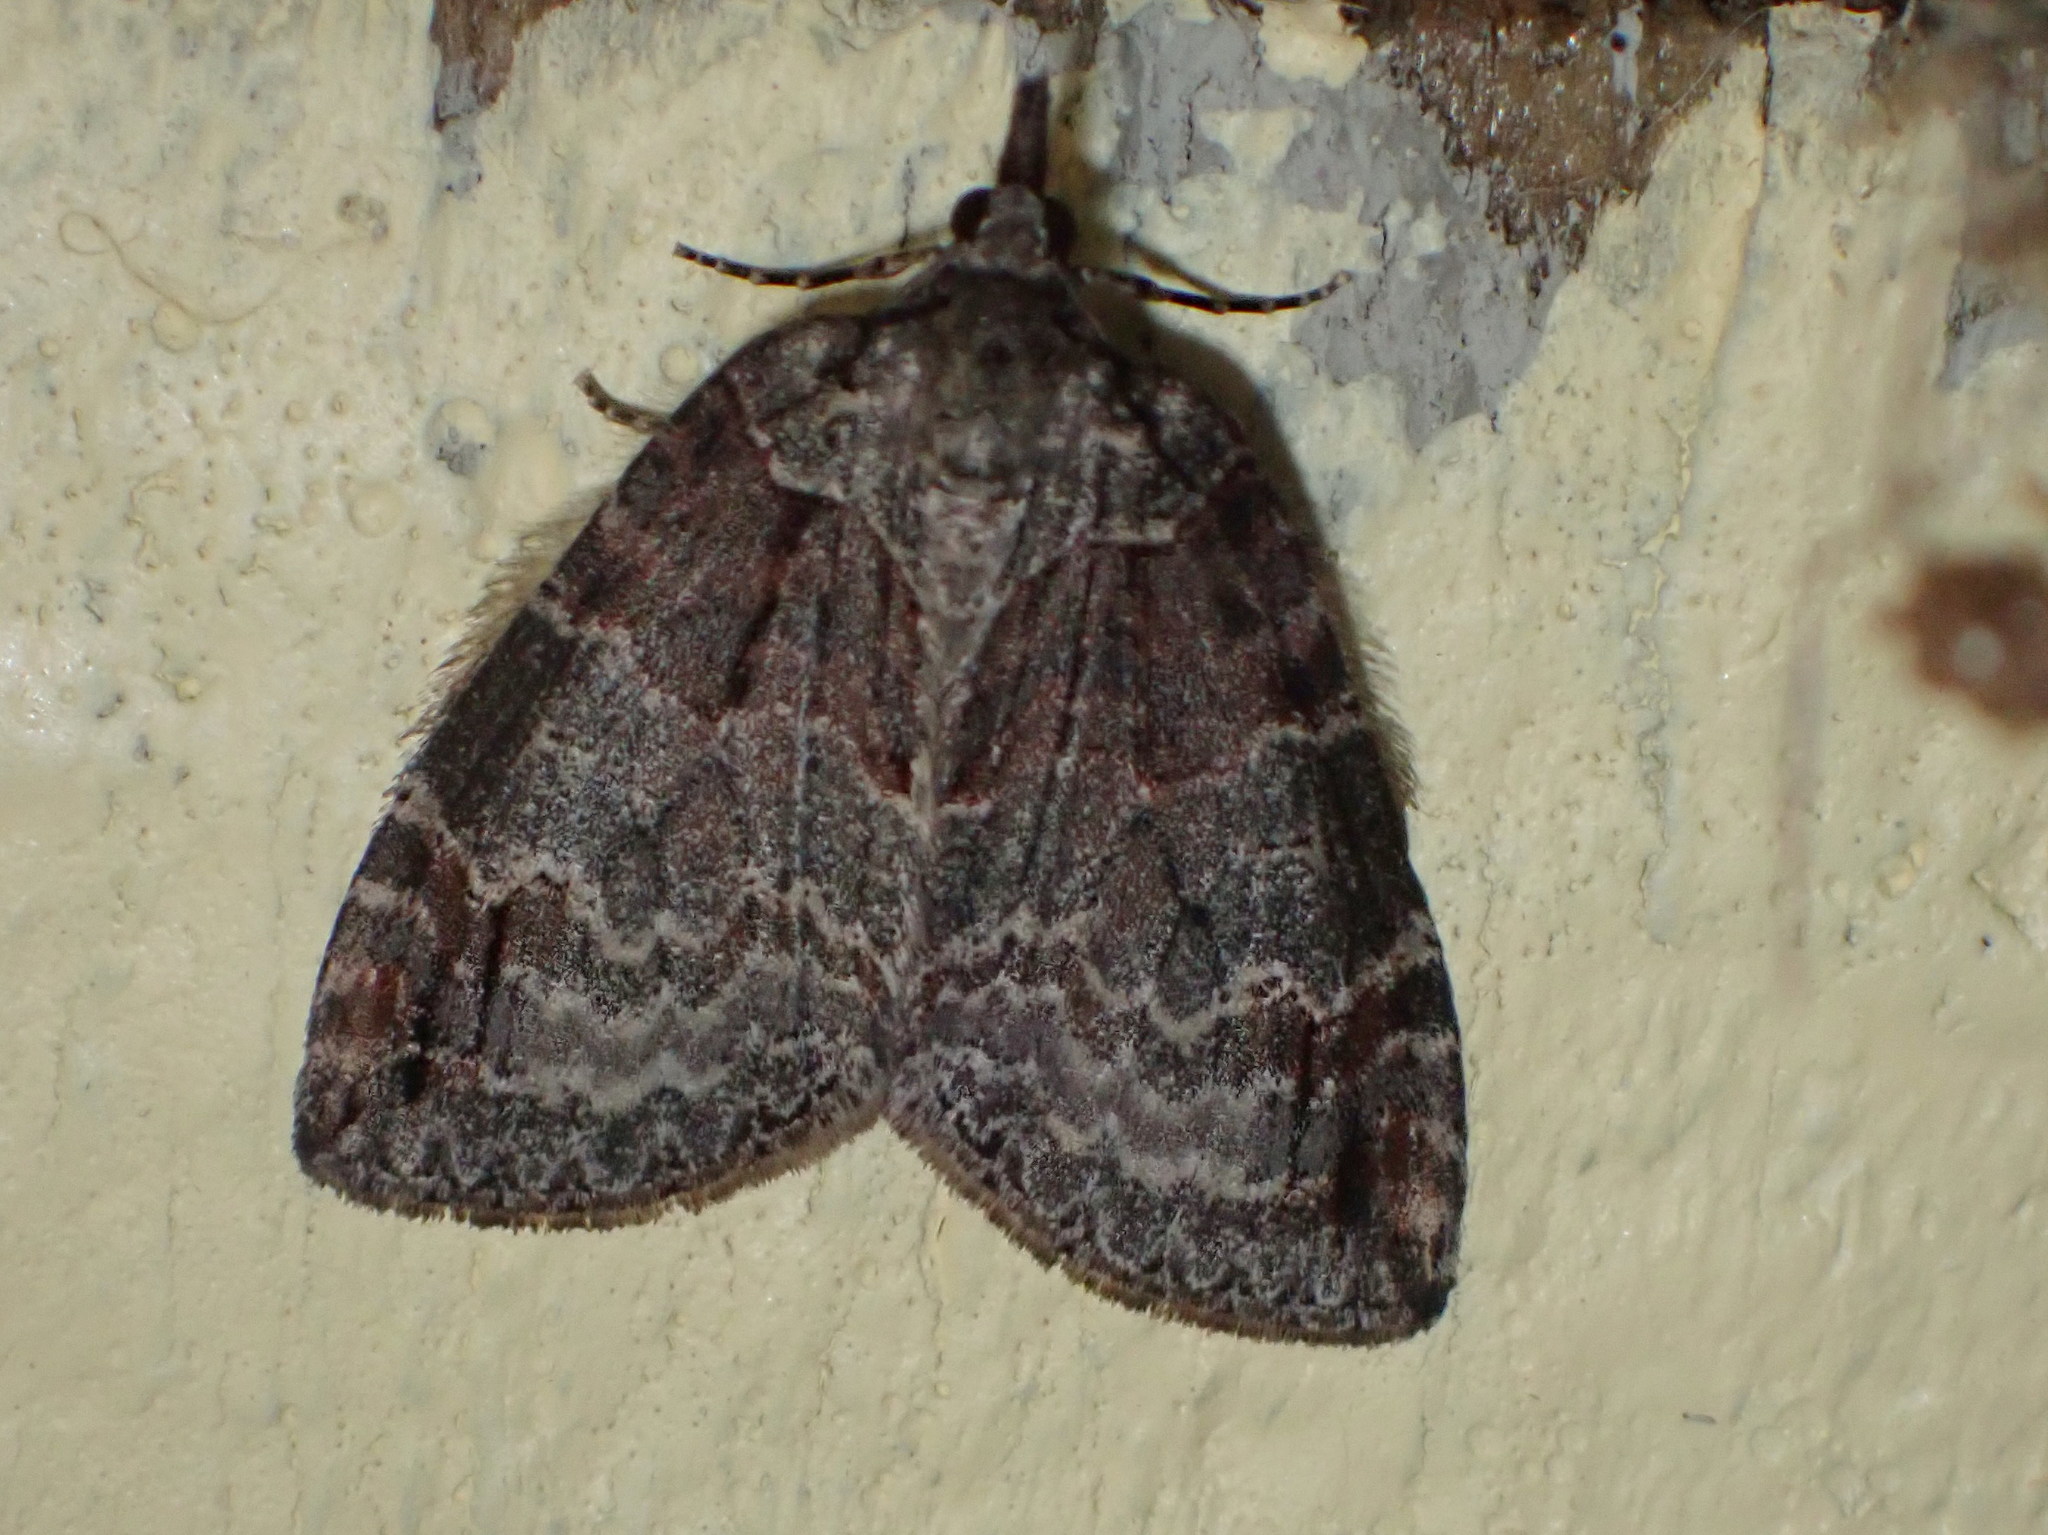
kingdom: Animalia
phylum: Arthropoda
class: Insecta
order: Lepidoptera
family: Geometridae
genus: Hydriomena
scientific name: Hydriomena ruberata
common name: Ruddy highflyer
